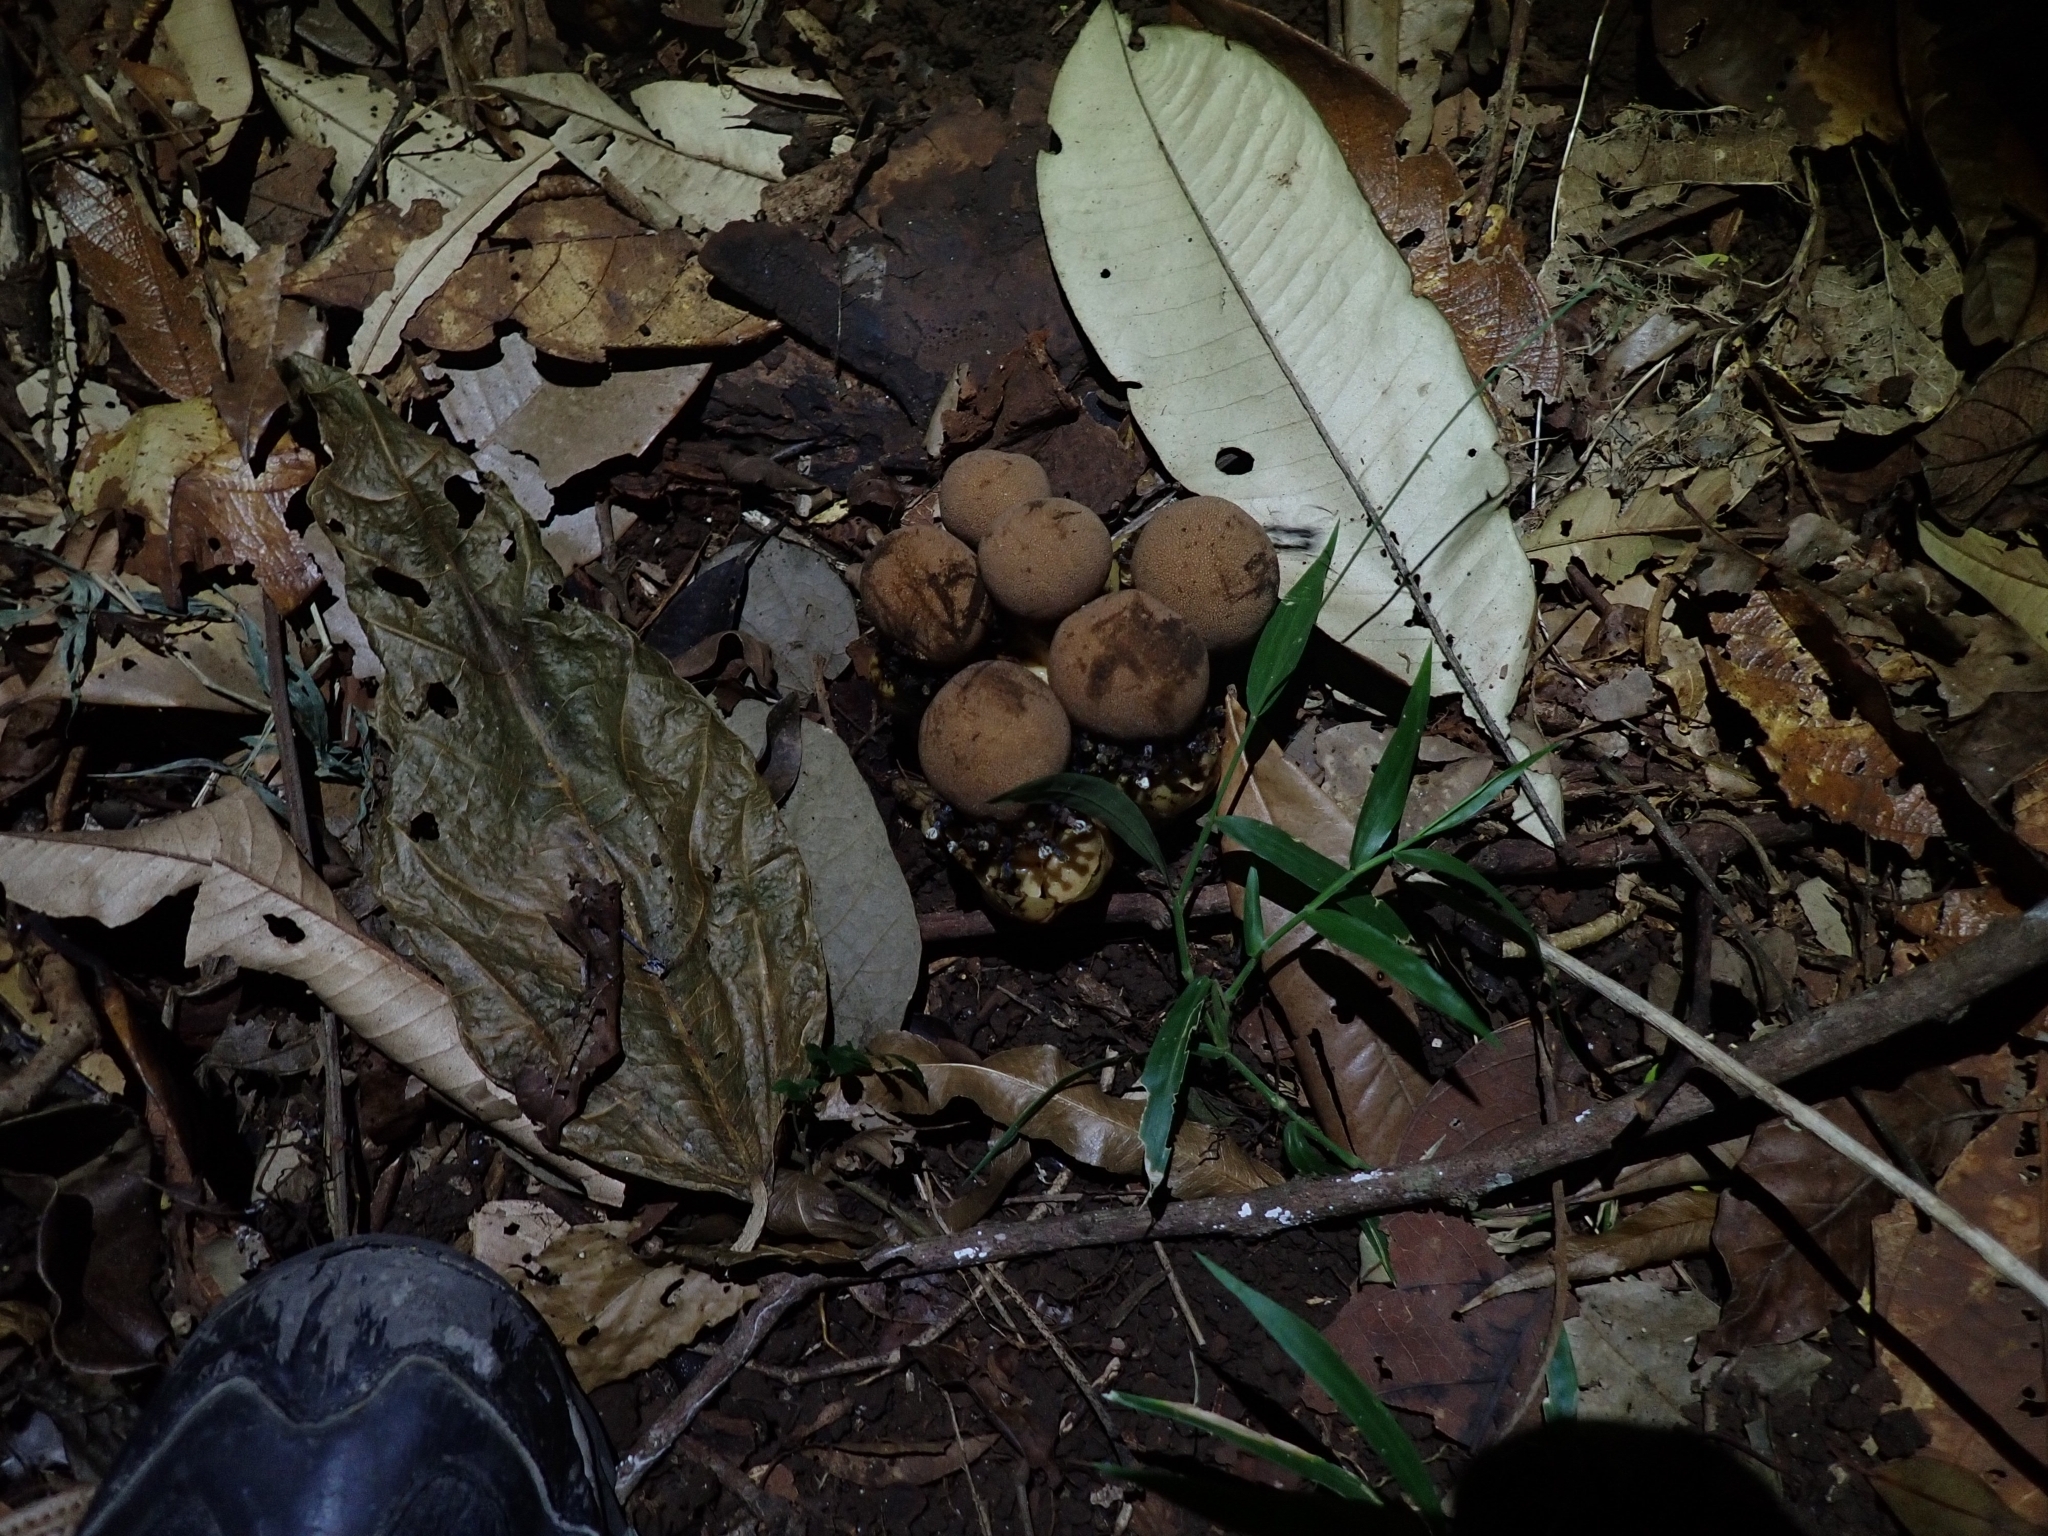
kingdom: Plantae
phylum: Tracheophyta
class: Magnoliopsida
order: Santalales
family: Balanophoraceae
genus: Balanophora
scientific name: Balanophora fungosa
